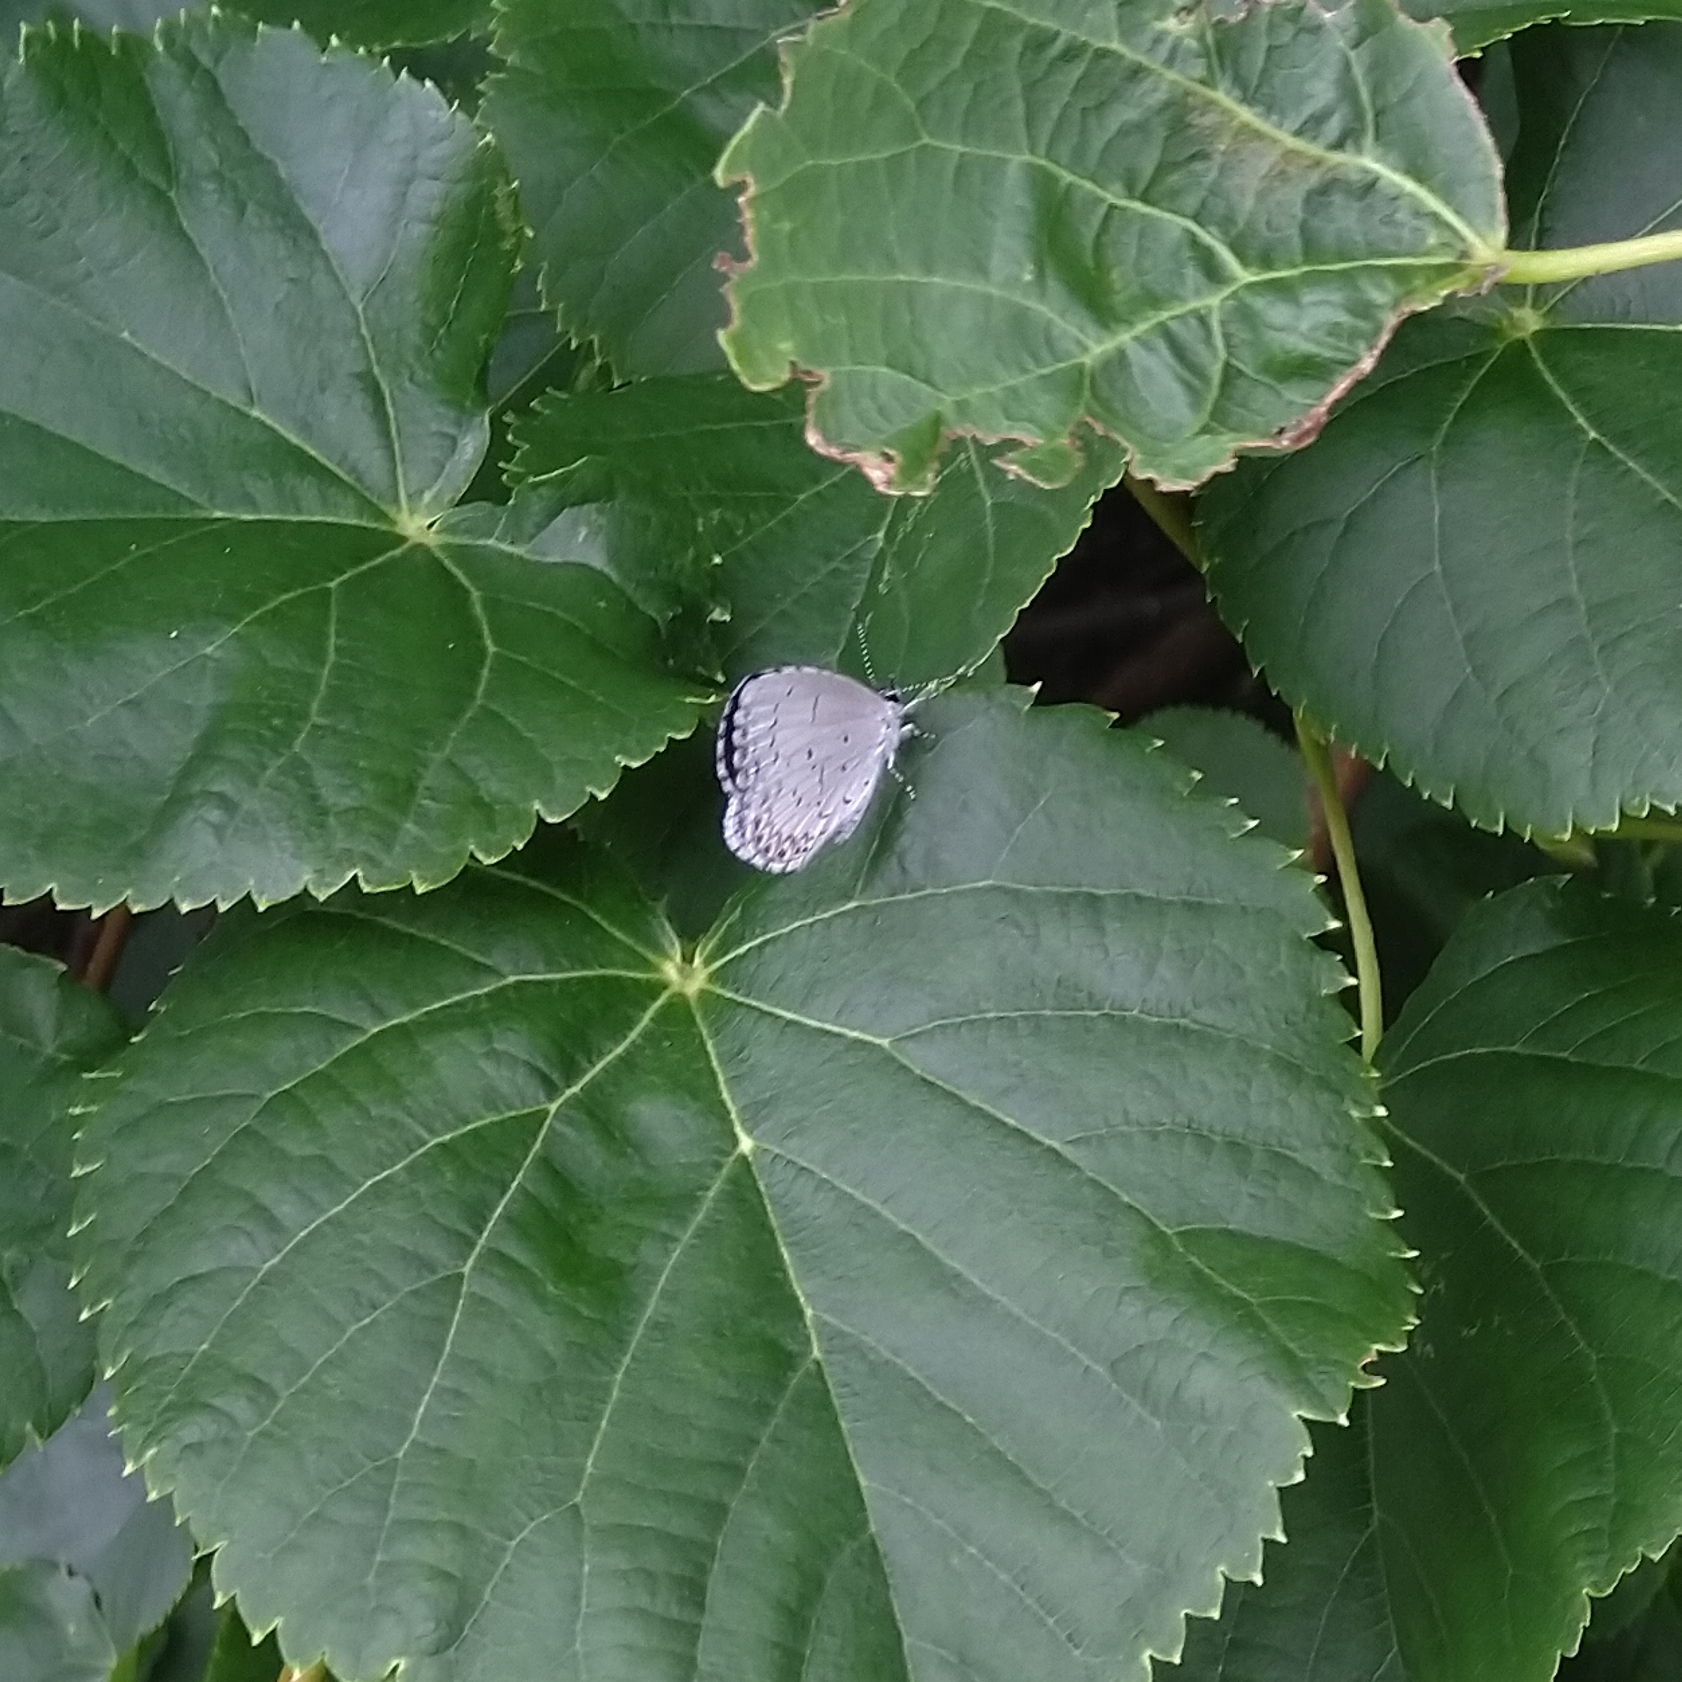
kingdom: Animalia
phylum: Arthropoda
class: Insecta
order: Lepidoptera
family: Lycaenidae
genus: Celastrina
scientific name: Celastrina lucia
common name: Lucia azure
